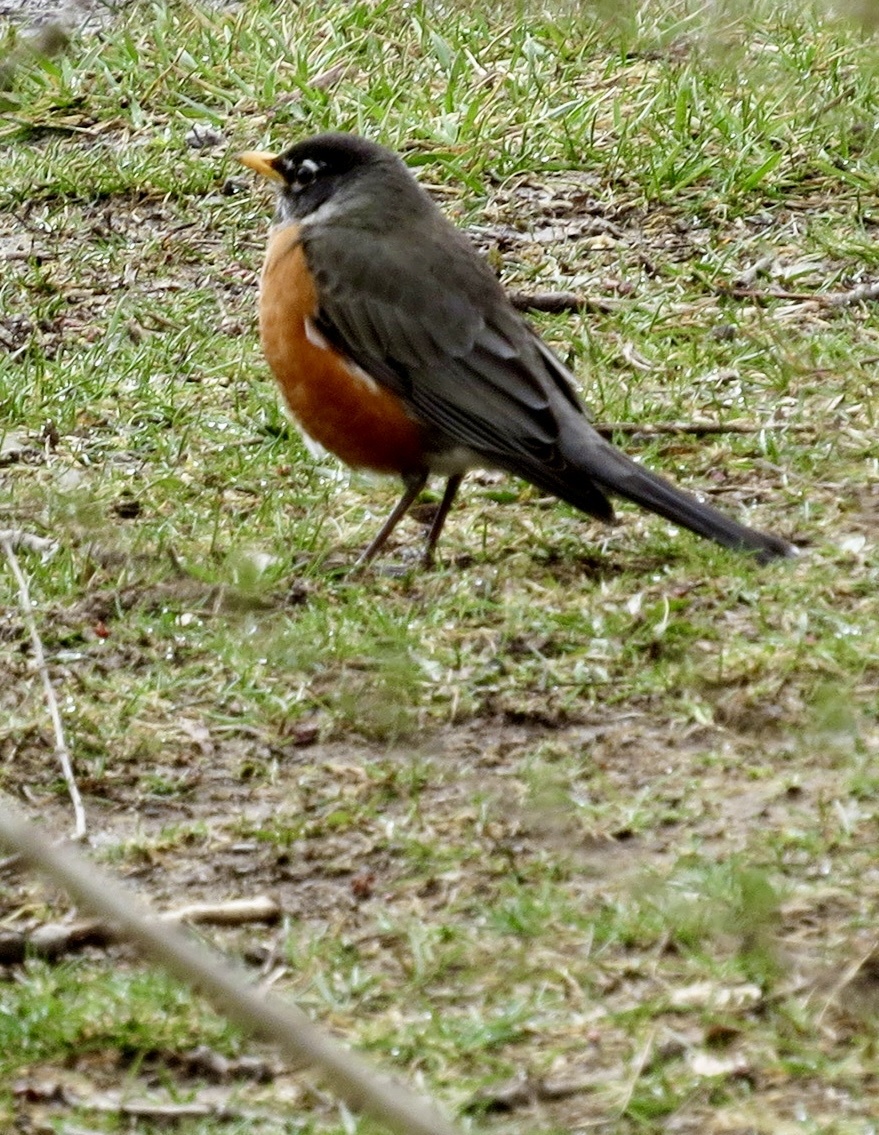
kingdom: Animalia
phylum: Chordata
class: Aves
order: Passeriformes
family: Turdidae
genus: Turdus
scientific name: Turdus migratorius
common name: American robin
